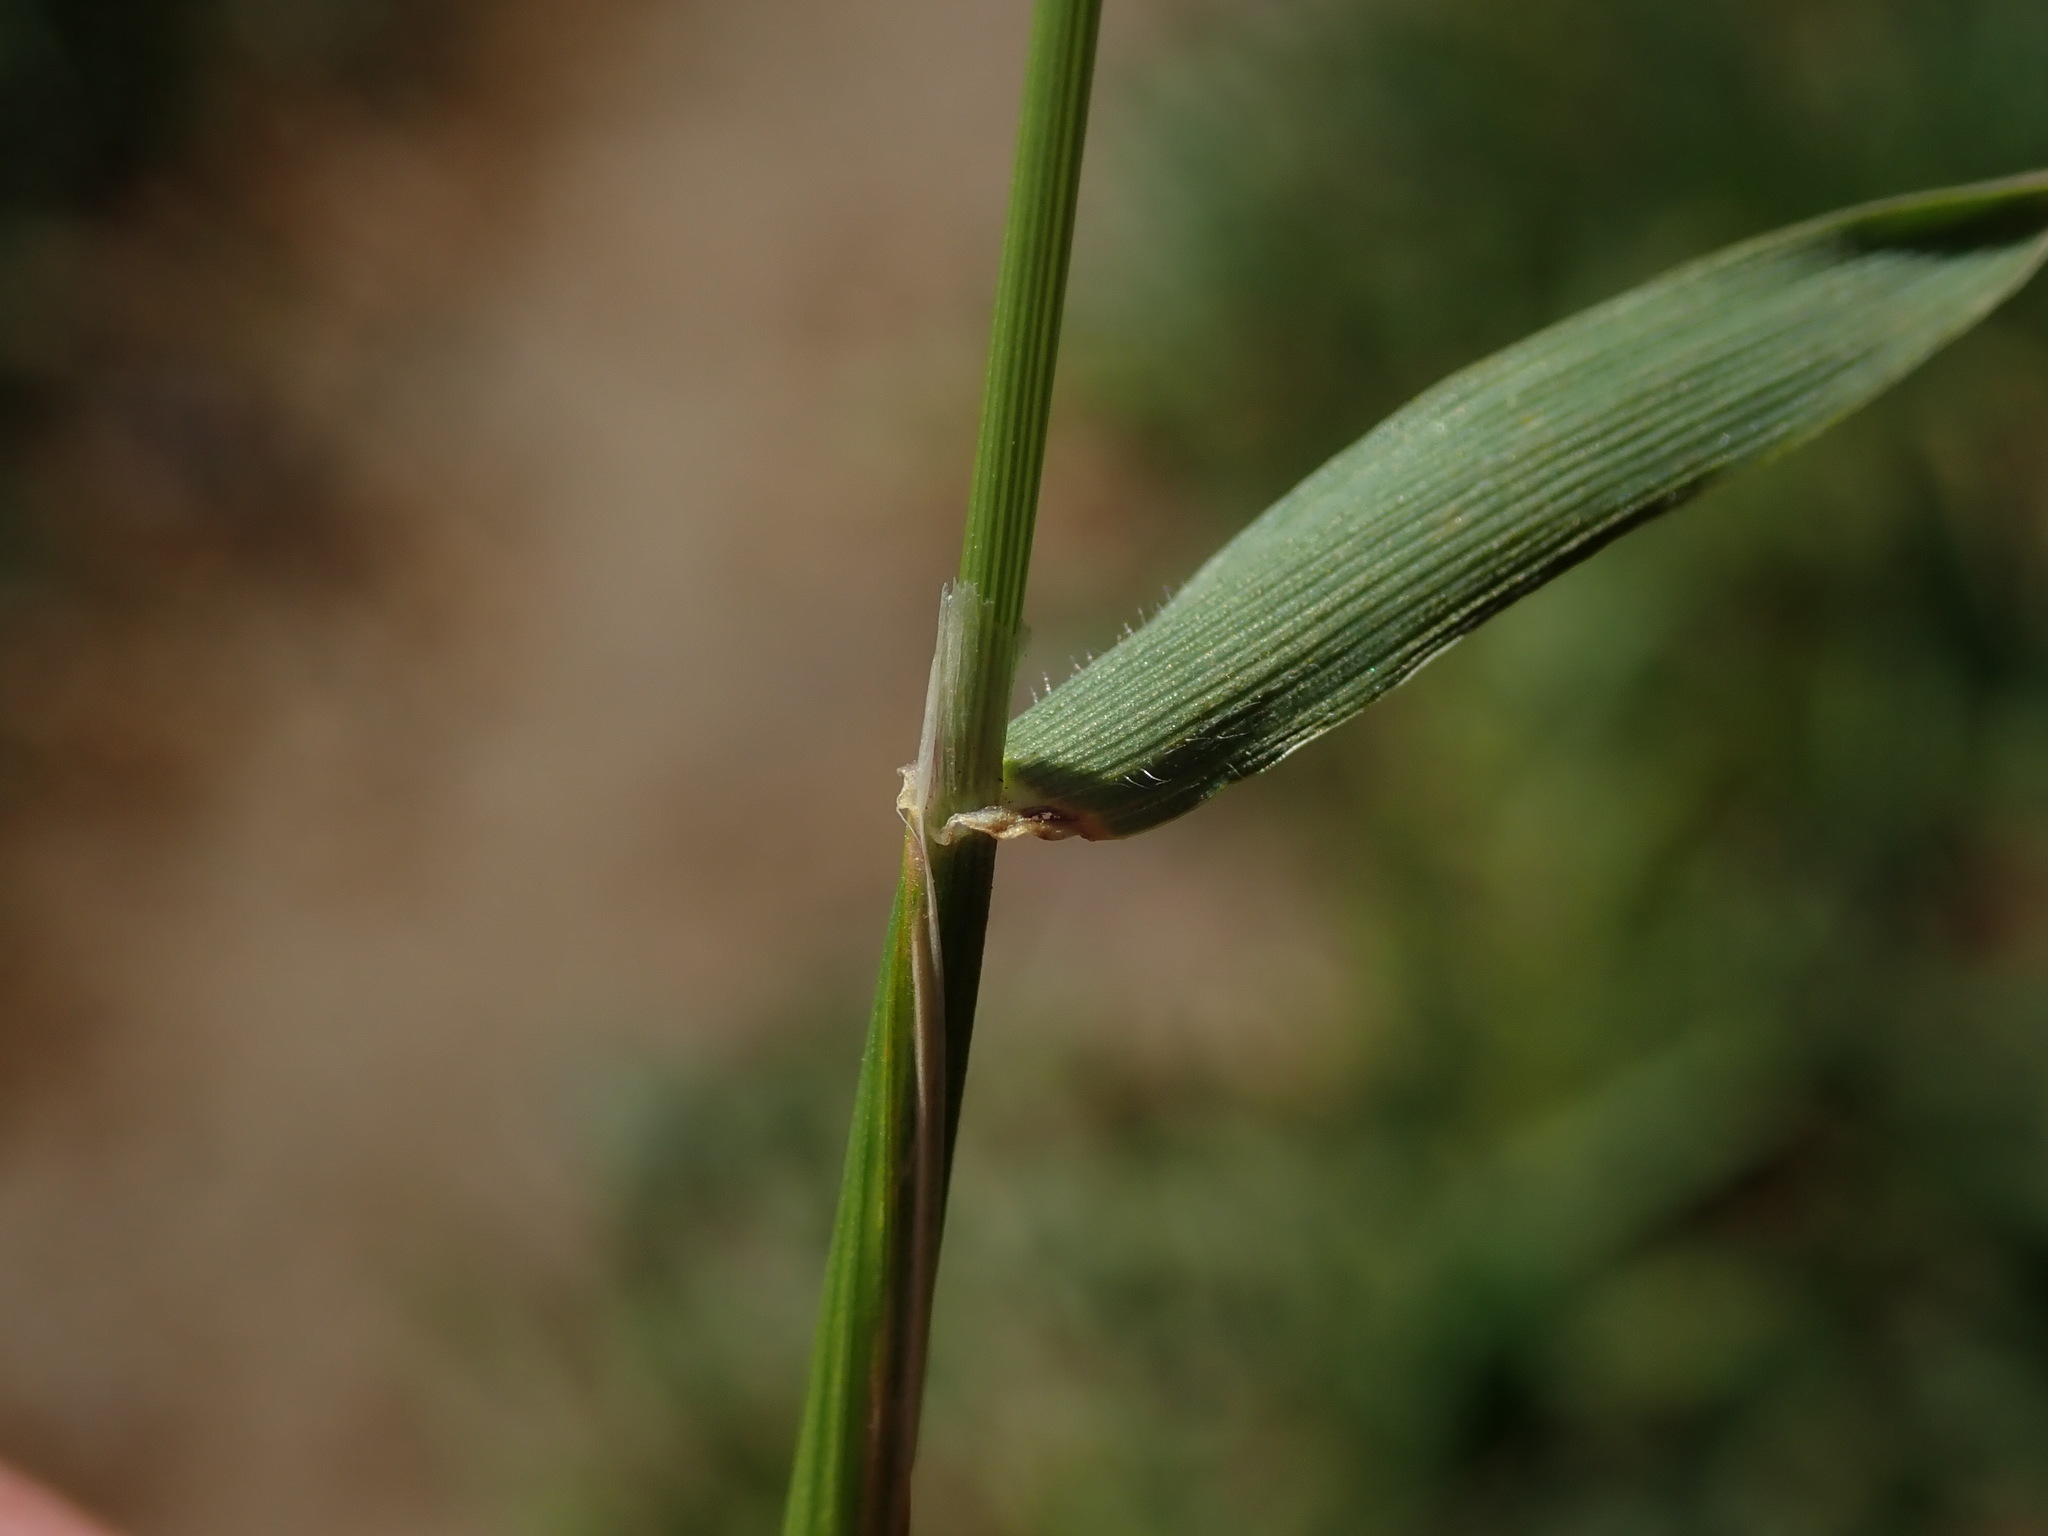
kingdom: Plantae
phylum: Tracheophyta
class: Liliopsida
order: Poales
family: Poaceae
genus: Anthoxanthum
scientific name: Anthoxanthum odoratum
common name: Sweet vernalgrass
